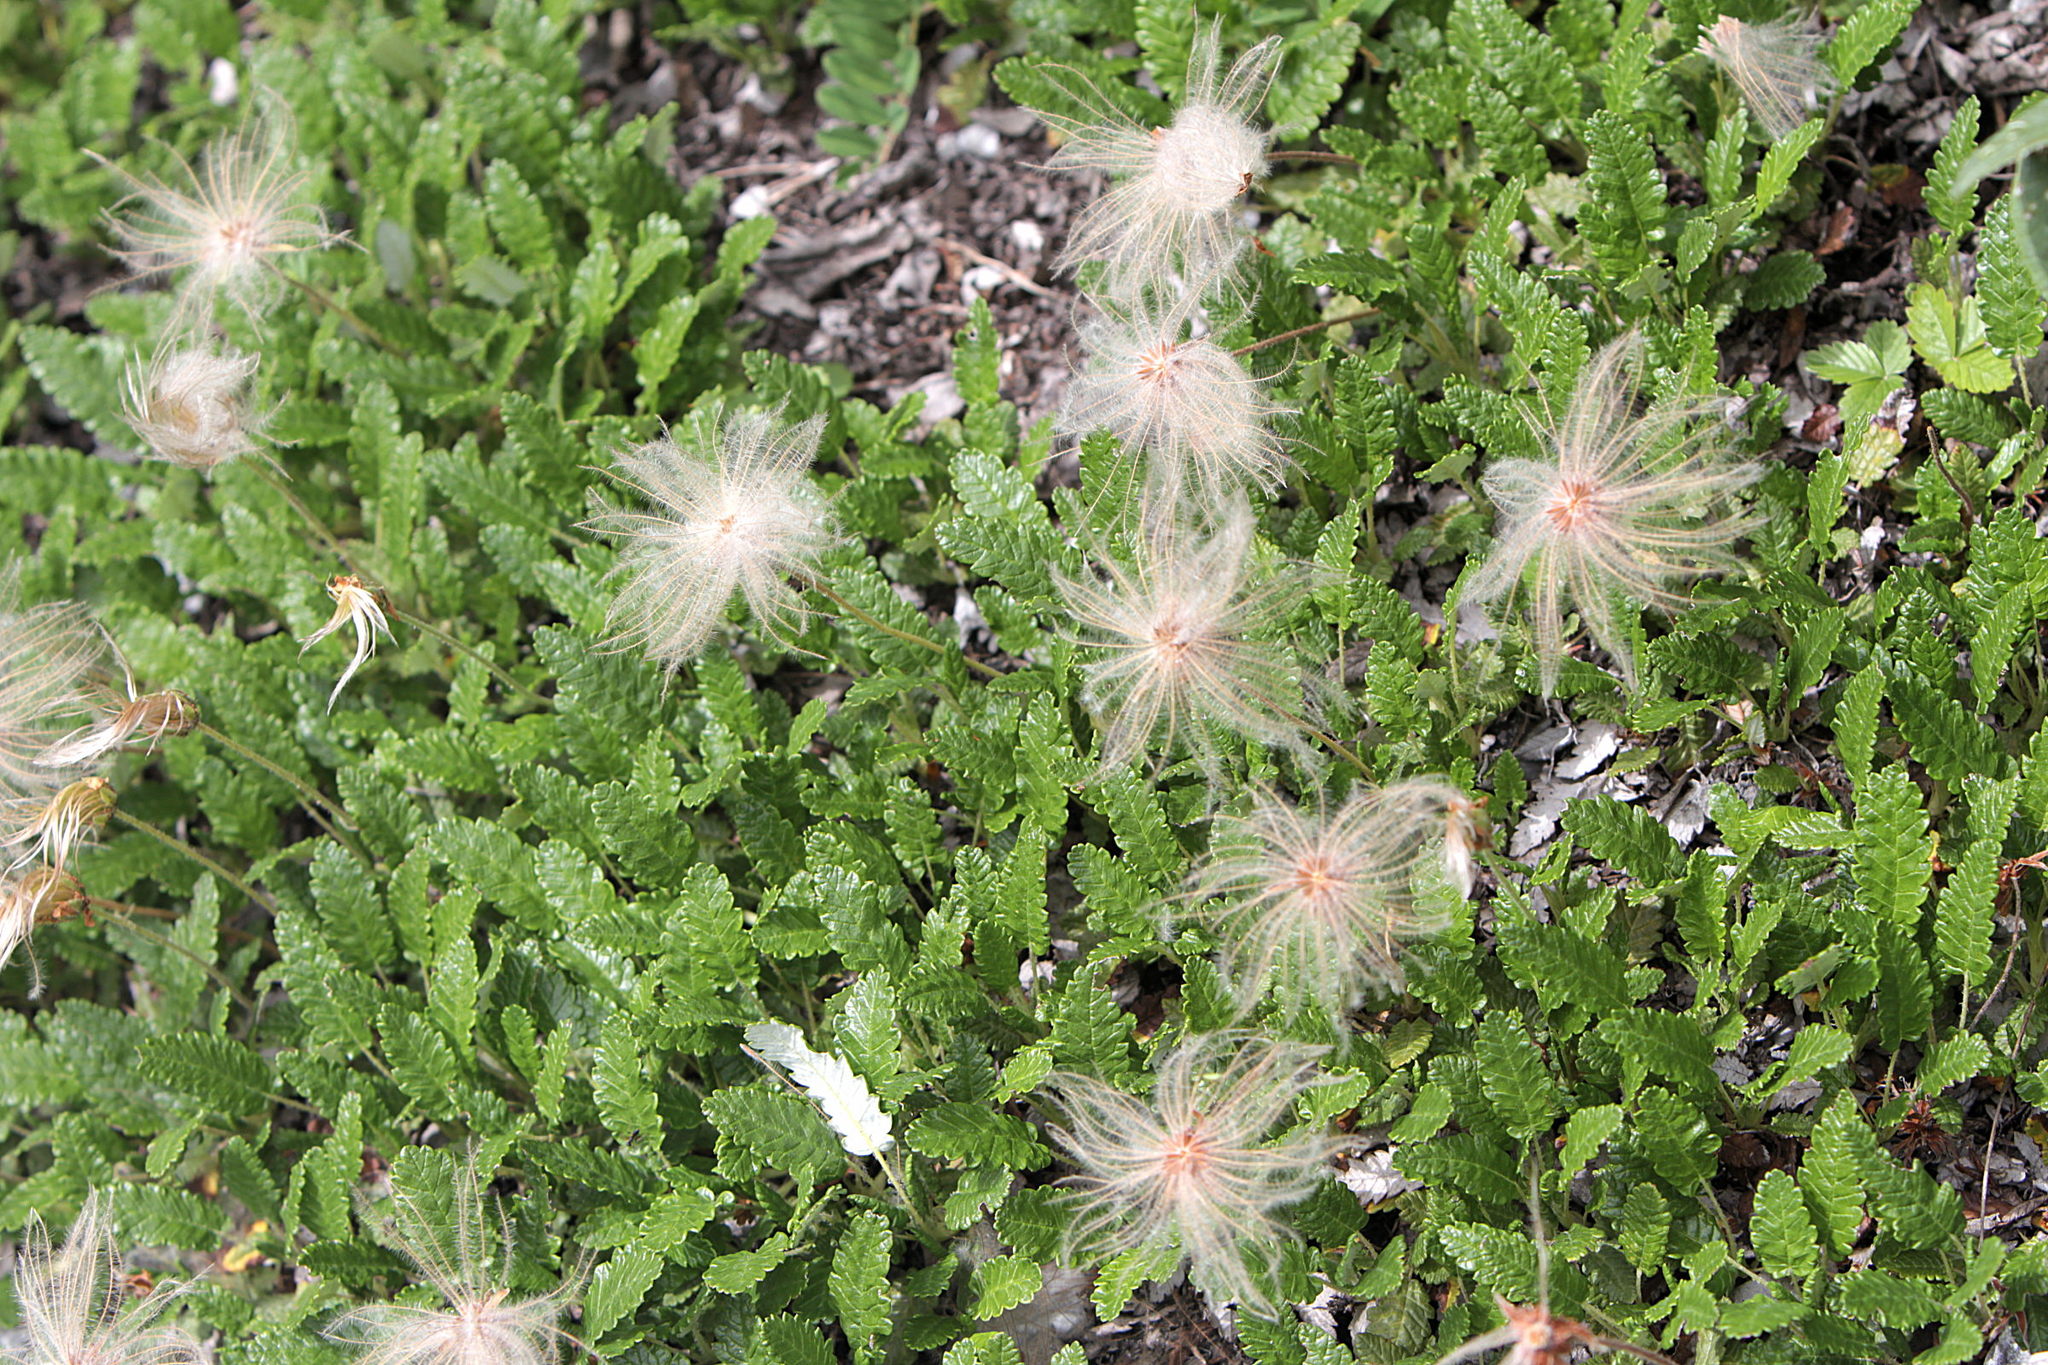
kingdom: Plantae
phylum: Tracheophyta
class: Magnoliopsida
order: Rosales
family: Rosaceae
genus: Dryas
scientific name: Dryas octopetala
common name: Eight-petal mountain-avens
